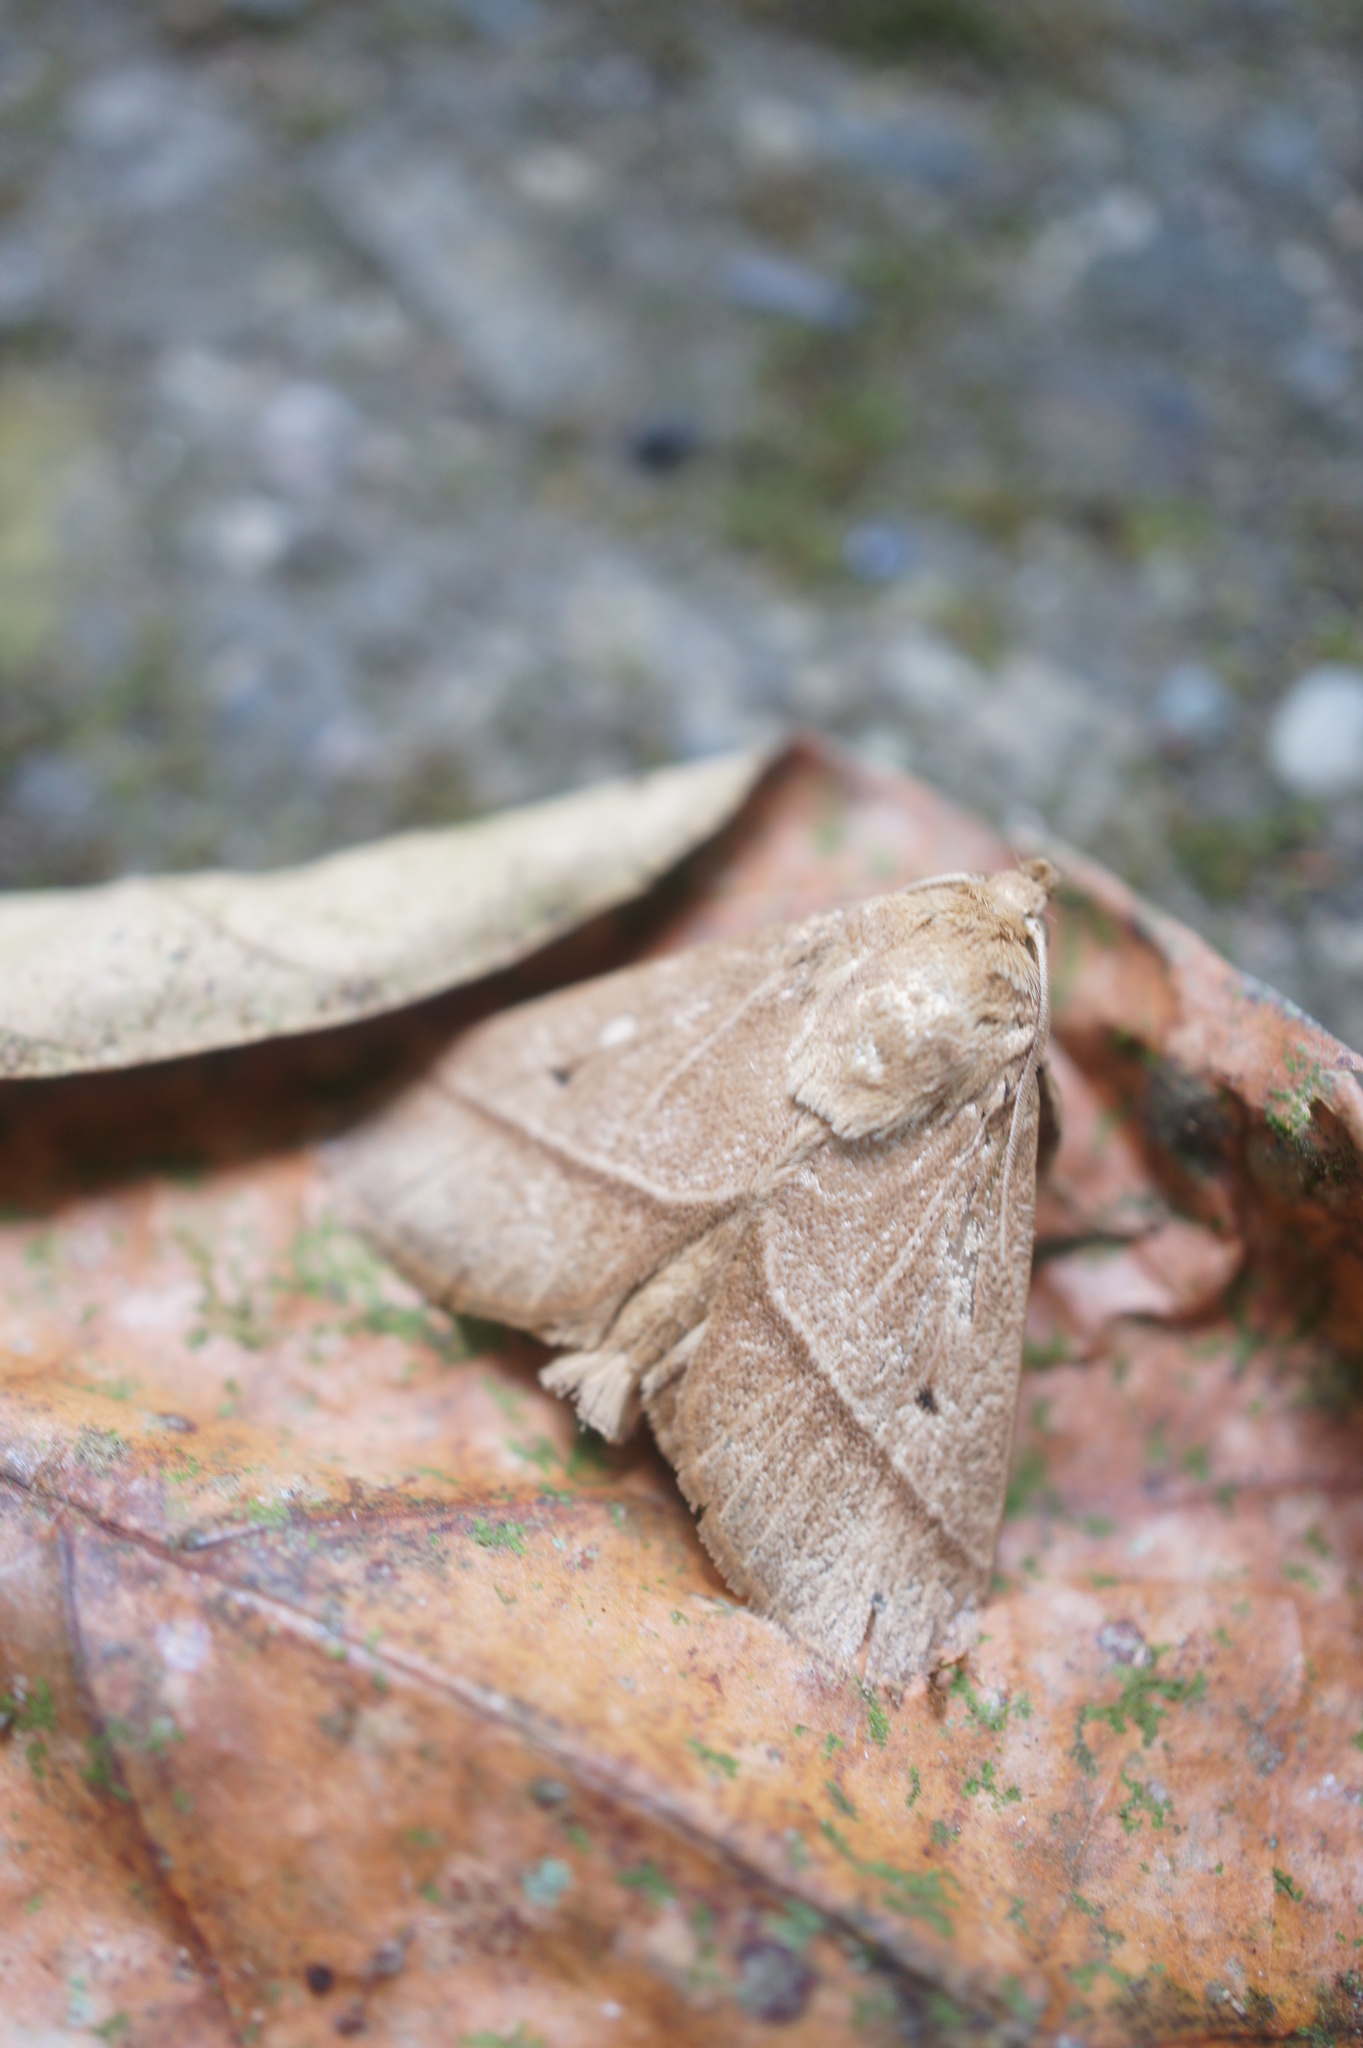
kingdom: Animalia
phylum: Arthropoda
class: Insecta
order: Lepidoptera
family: Limacodidae
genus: Setothosea
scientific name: Setothosea asigna
